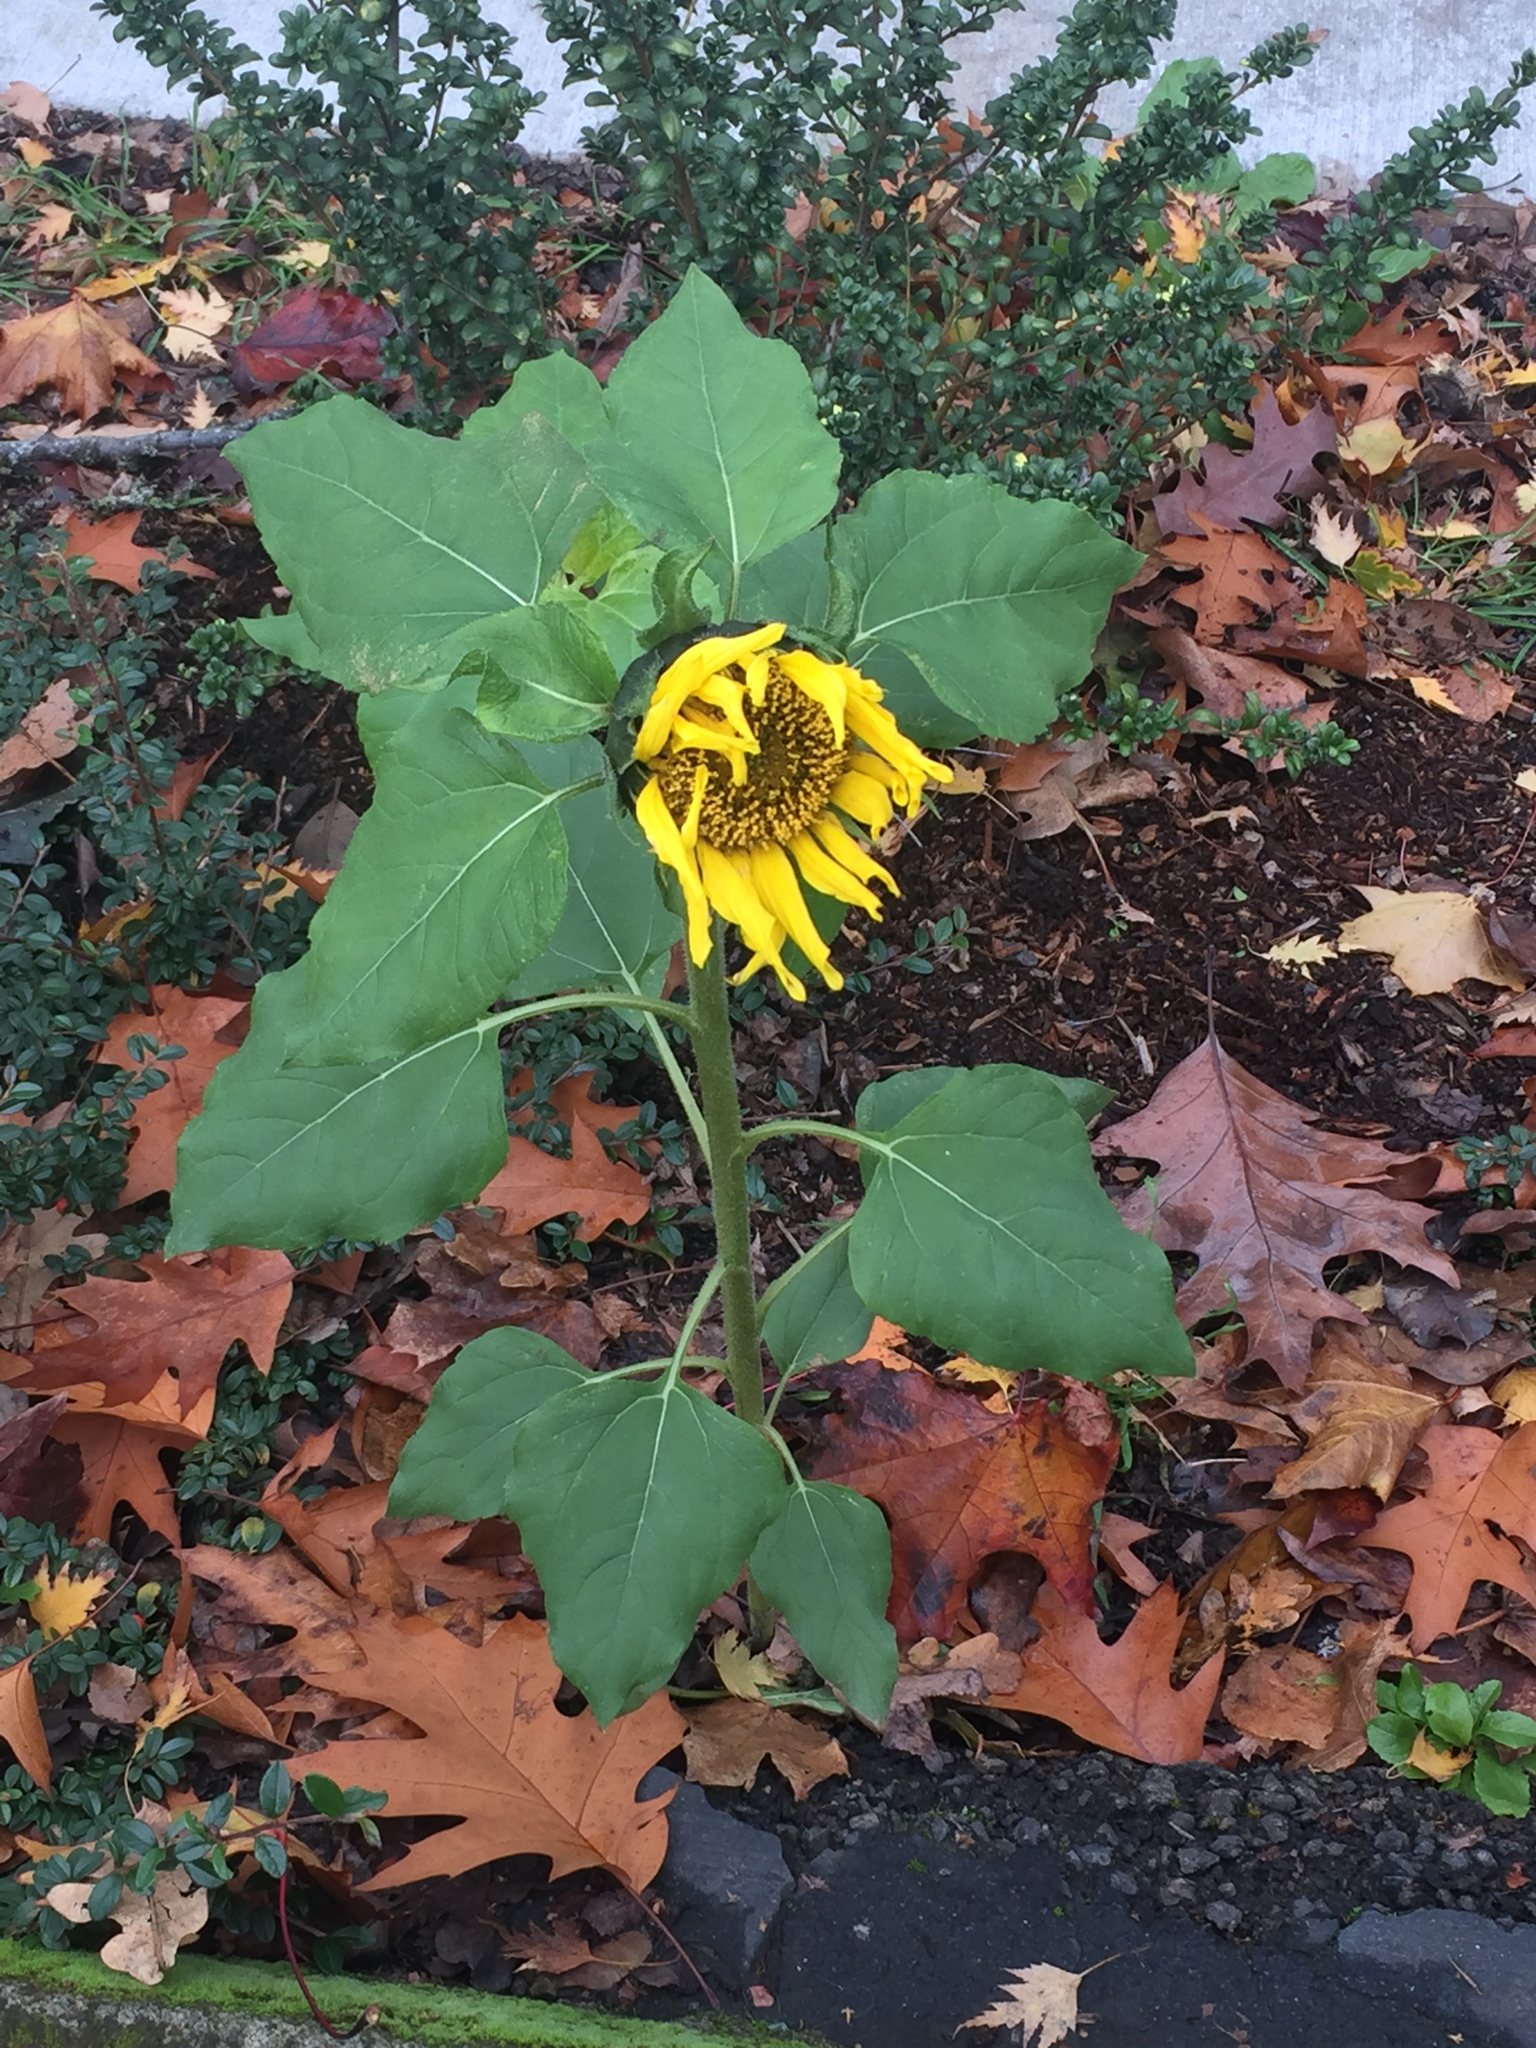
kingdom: Plantae
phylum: Tracheophyta
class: Magnoliopsida
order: Asterales
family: Asteraceae
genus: Helianthus
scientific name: Helianthus annuus
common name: Sunflower
